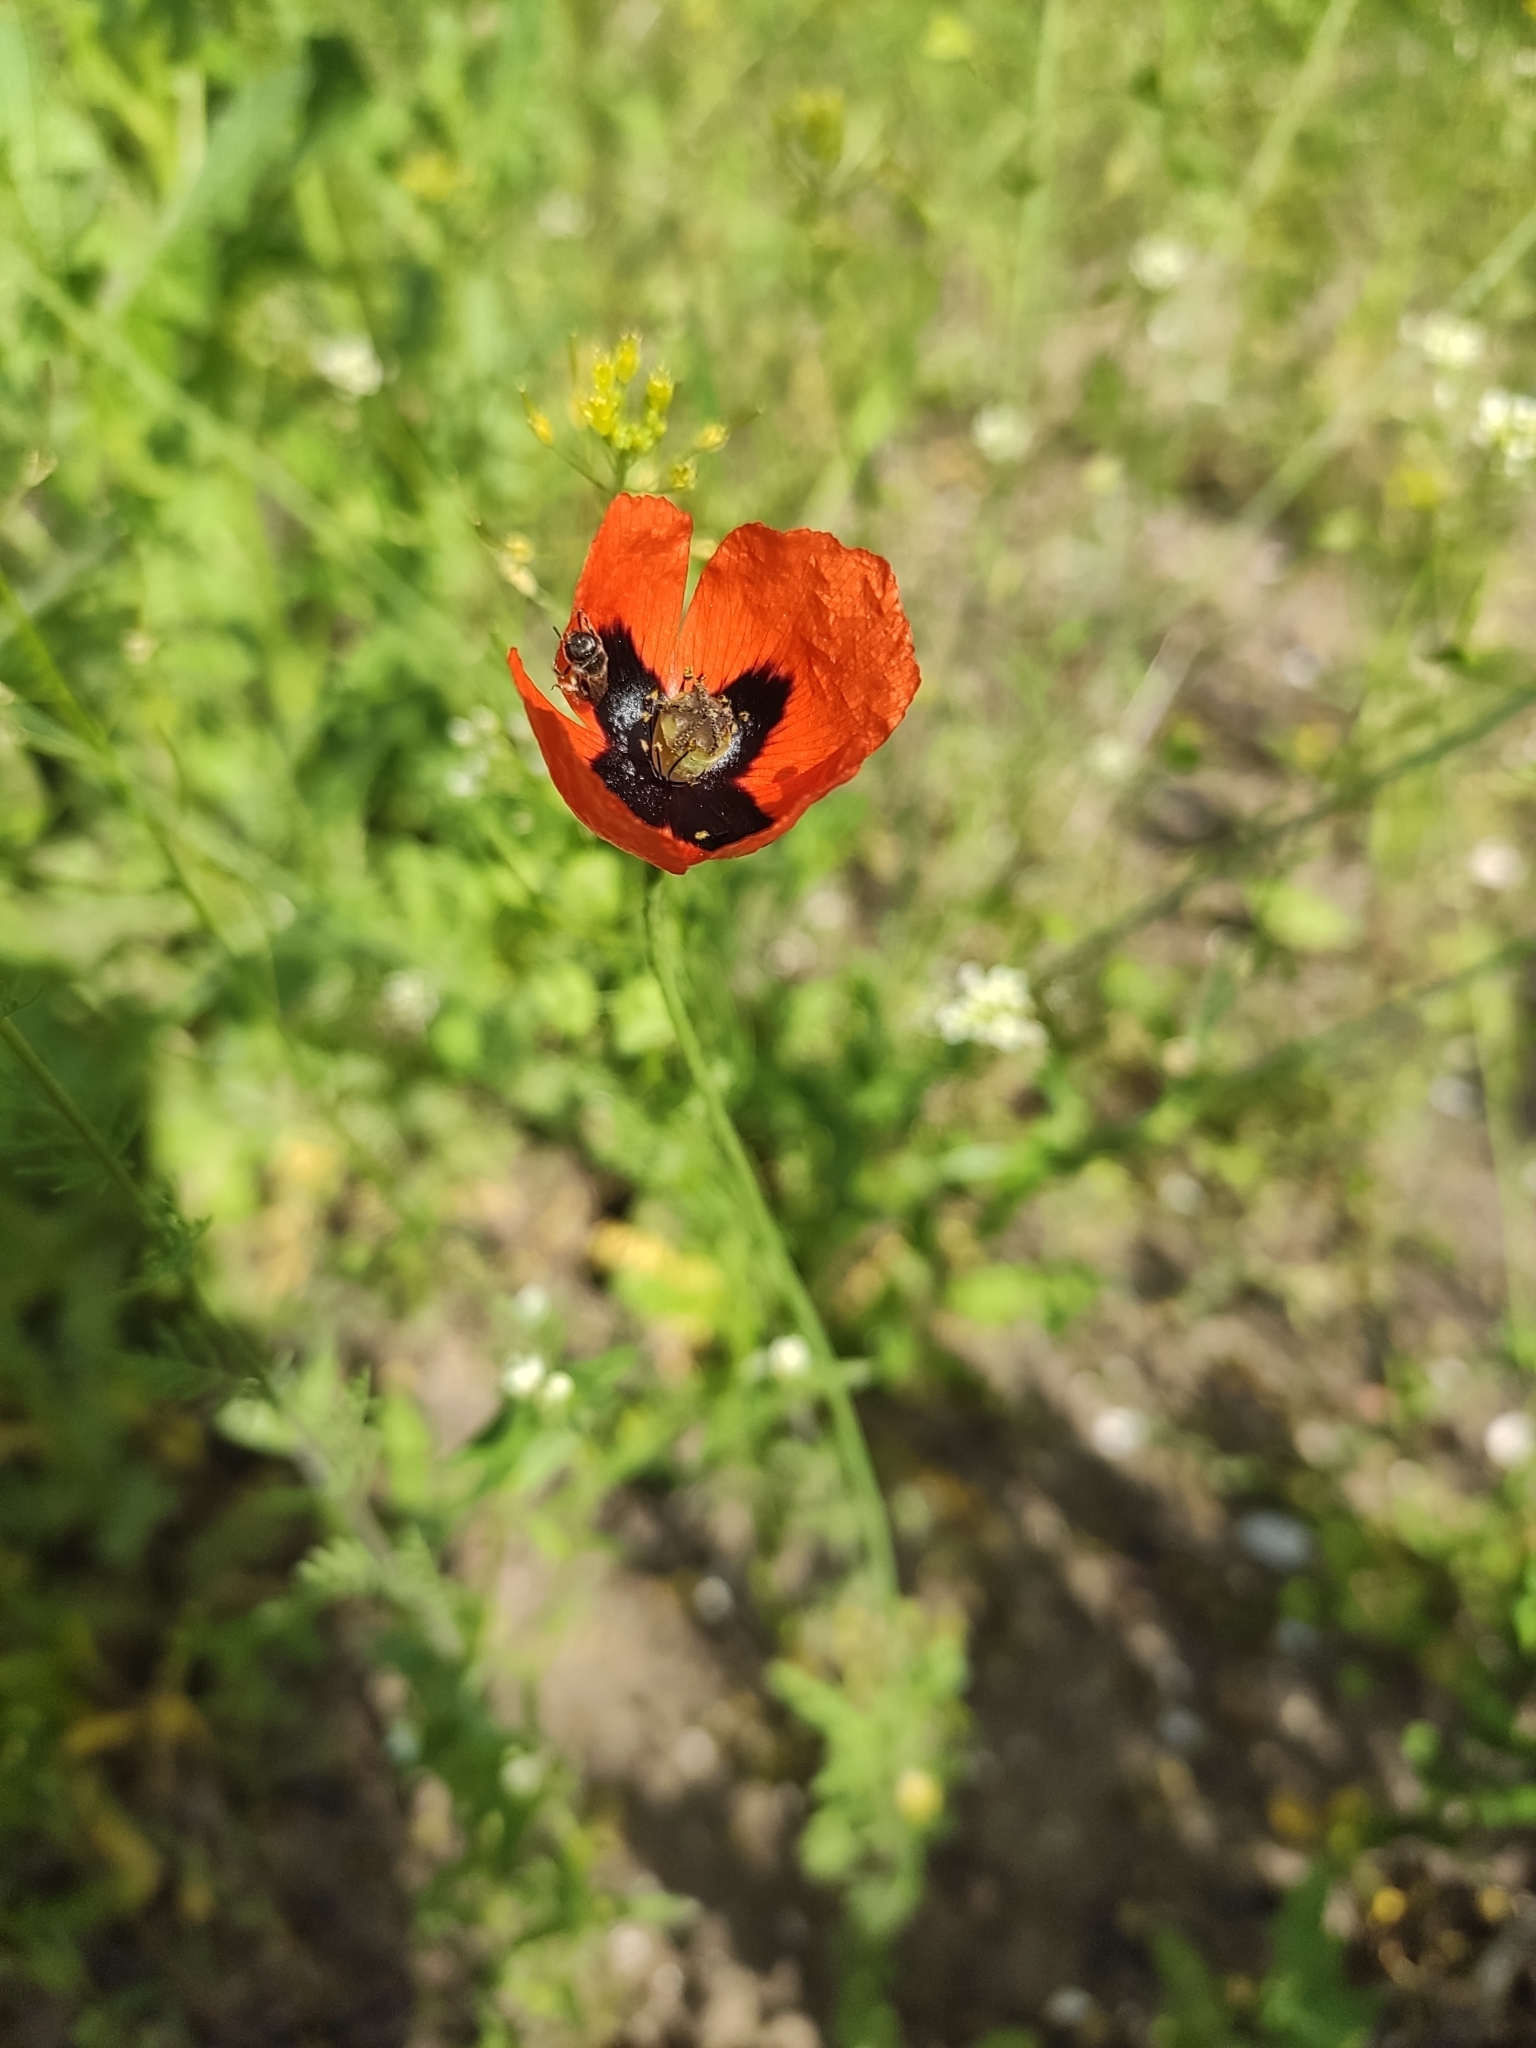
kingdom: Plantae
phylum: Tracheophyta
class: Magnoliopsida
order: Ranunculales
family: Papaveraceae
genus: Papaver
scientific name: Papaver dubium
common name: Long-headed poppy
